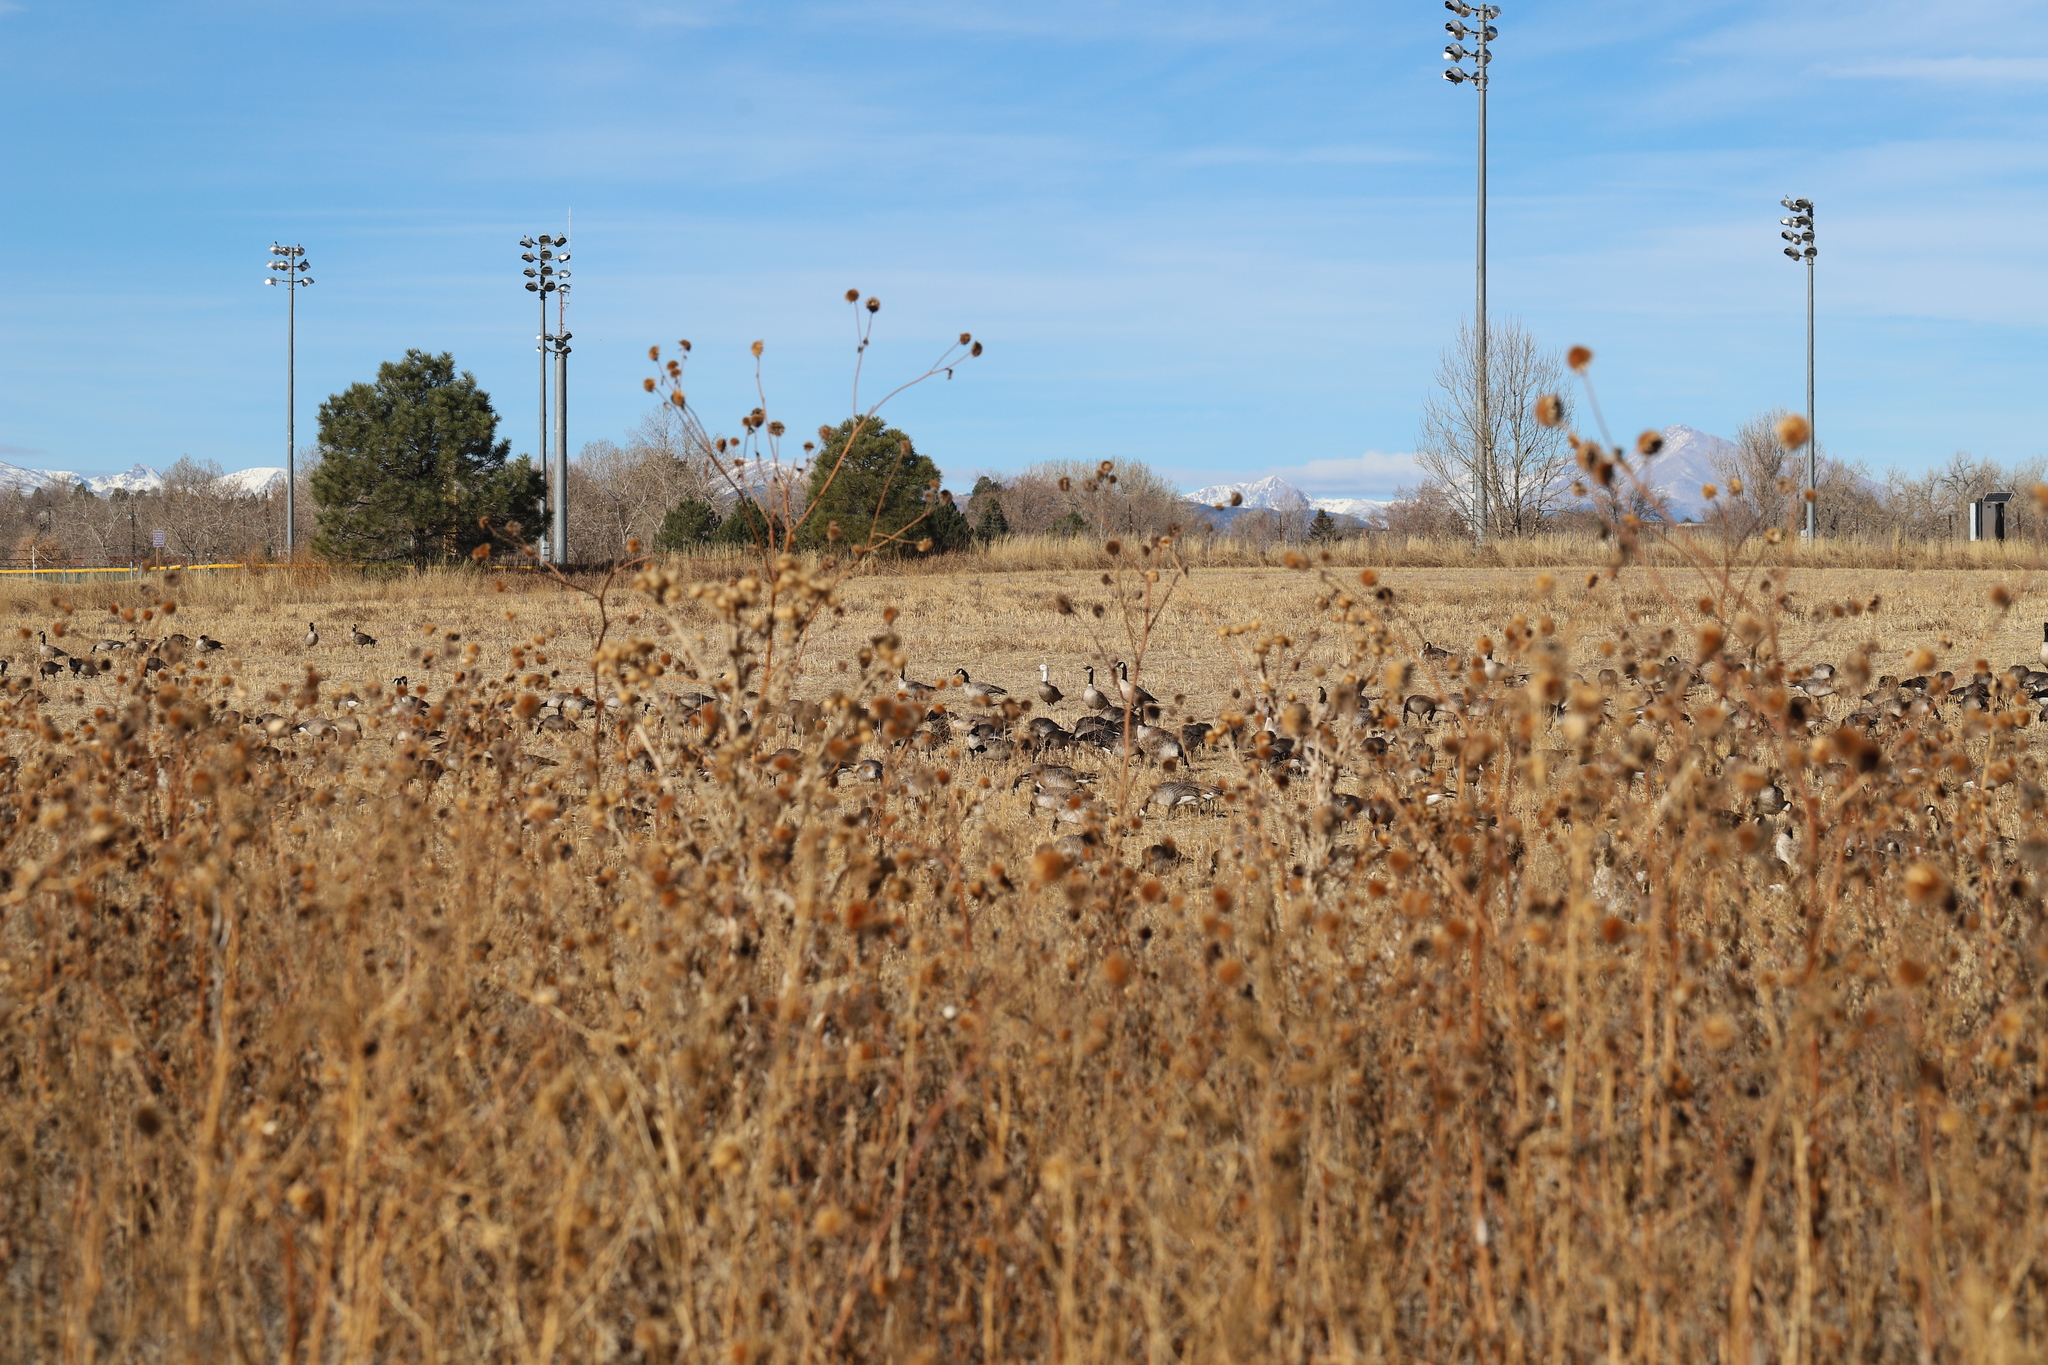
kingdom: Animalia
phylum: Chordata
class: Aves
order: Anseriformes
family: Anatidae
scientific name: Anatidae
